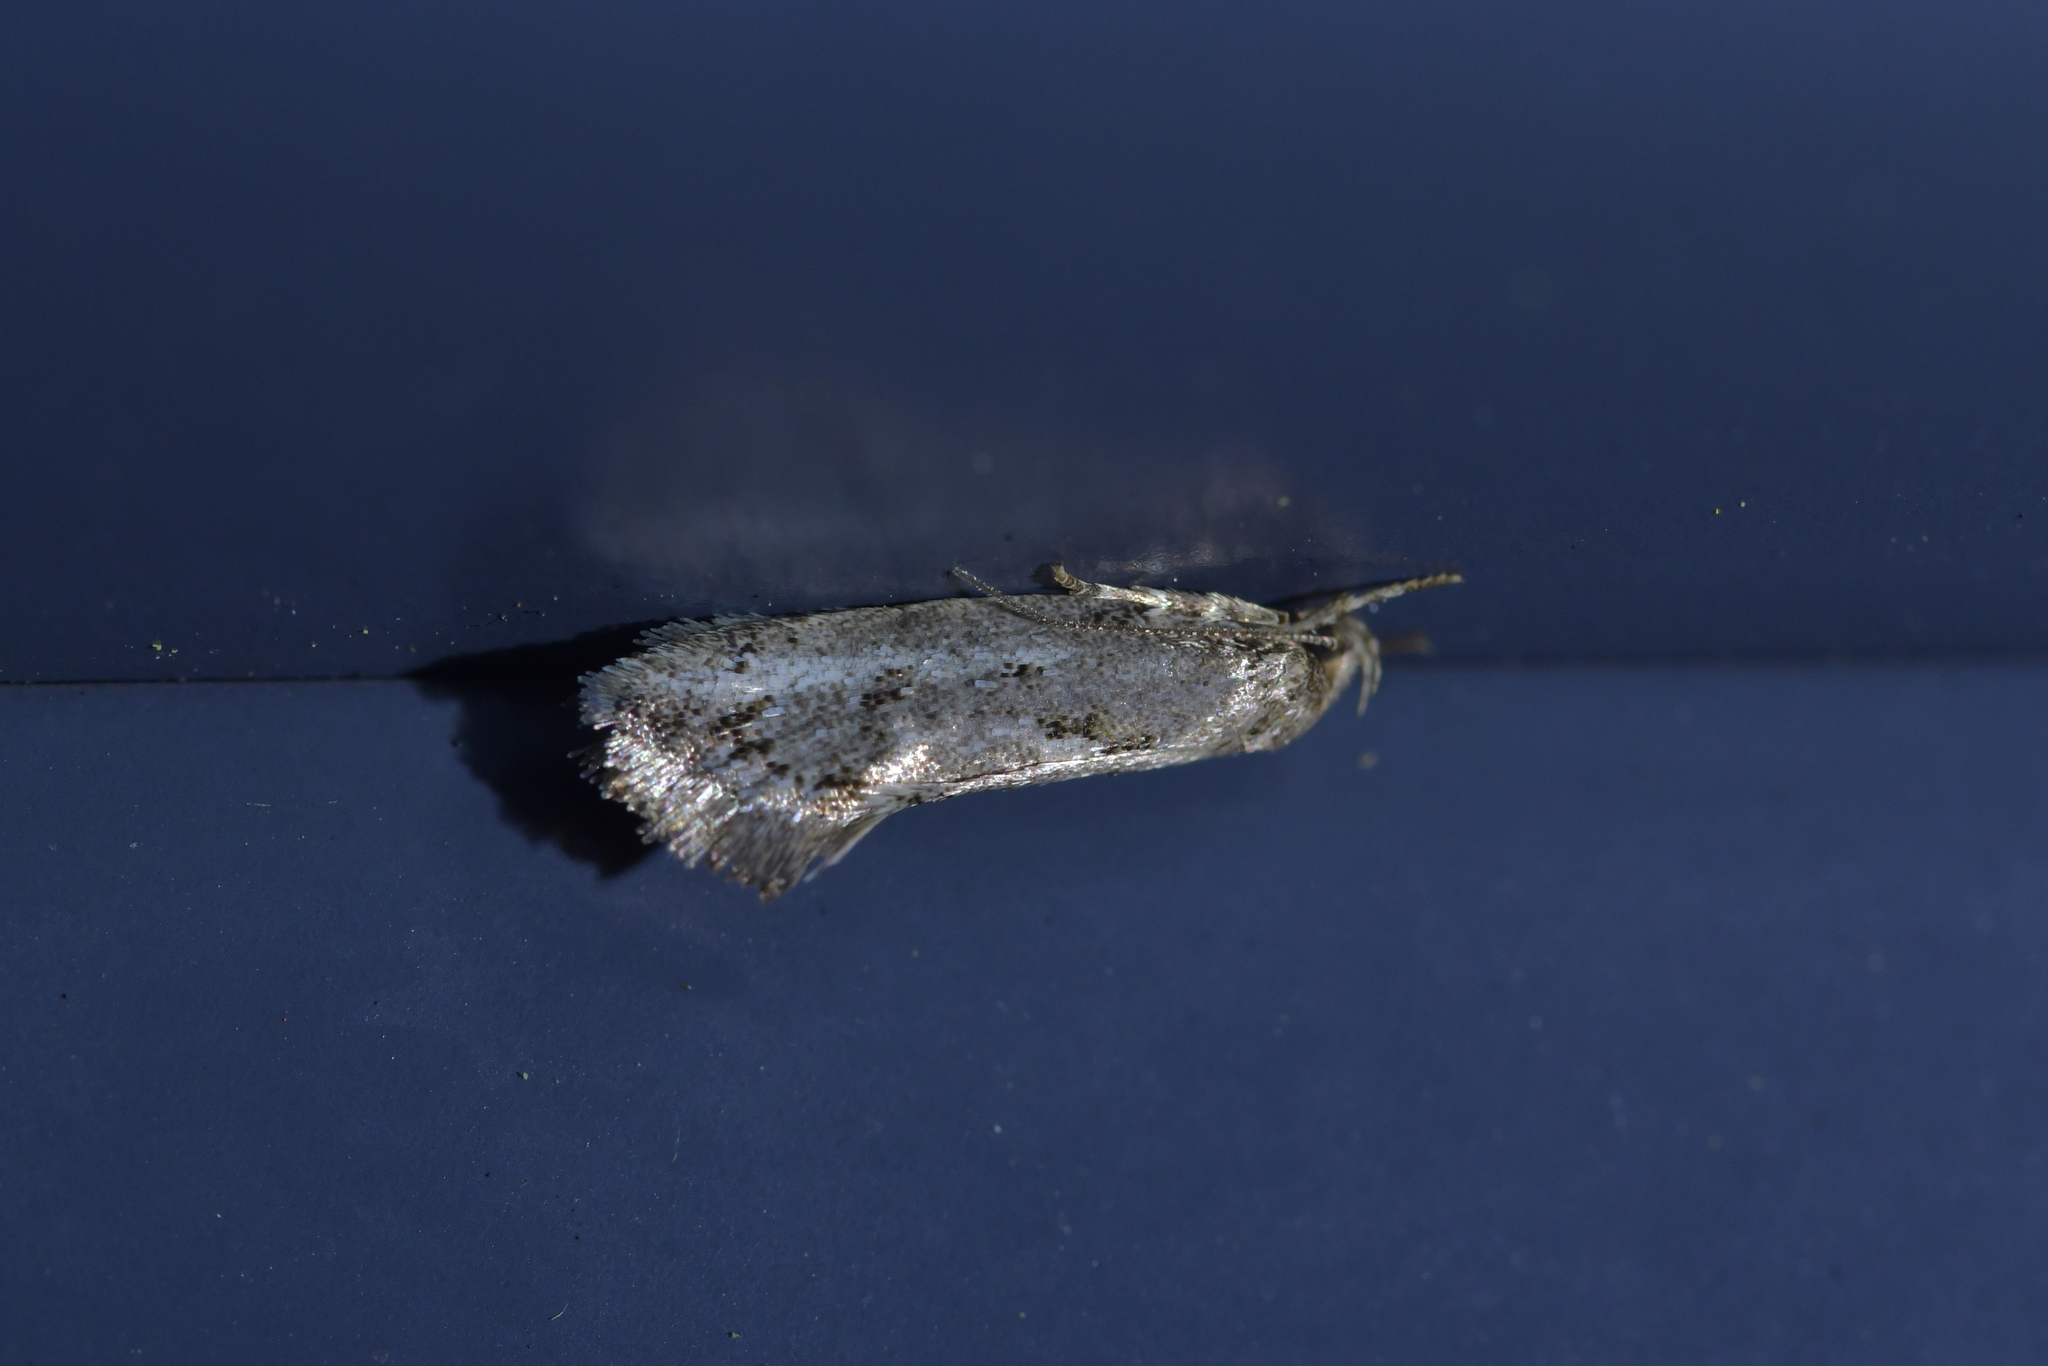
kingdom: Animalia
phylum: Arthropoda
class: Insecta
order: Lepidoptera
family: Oecophoridae
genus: Tingena
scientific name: Tingena hemimochla
